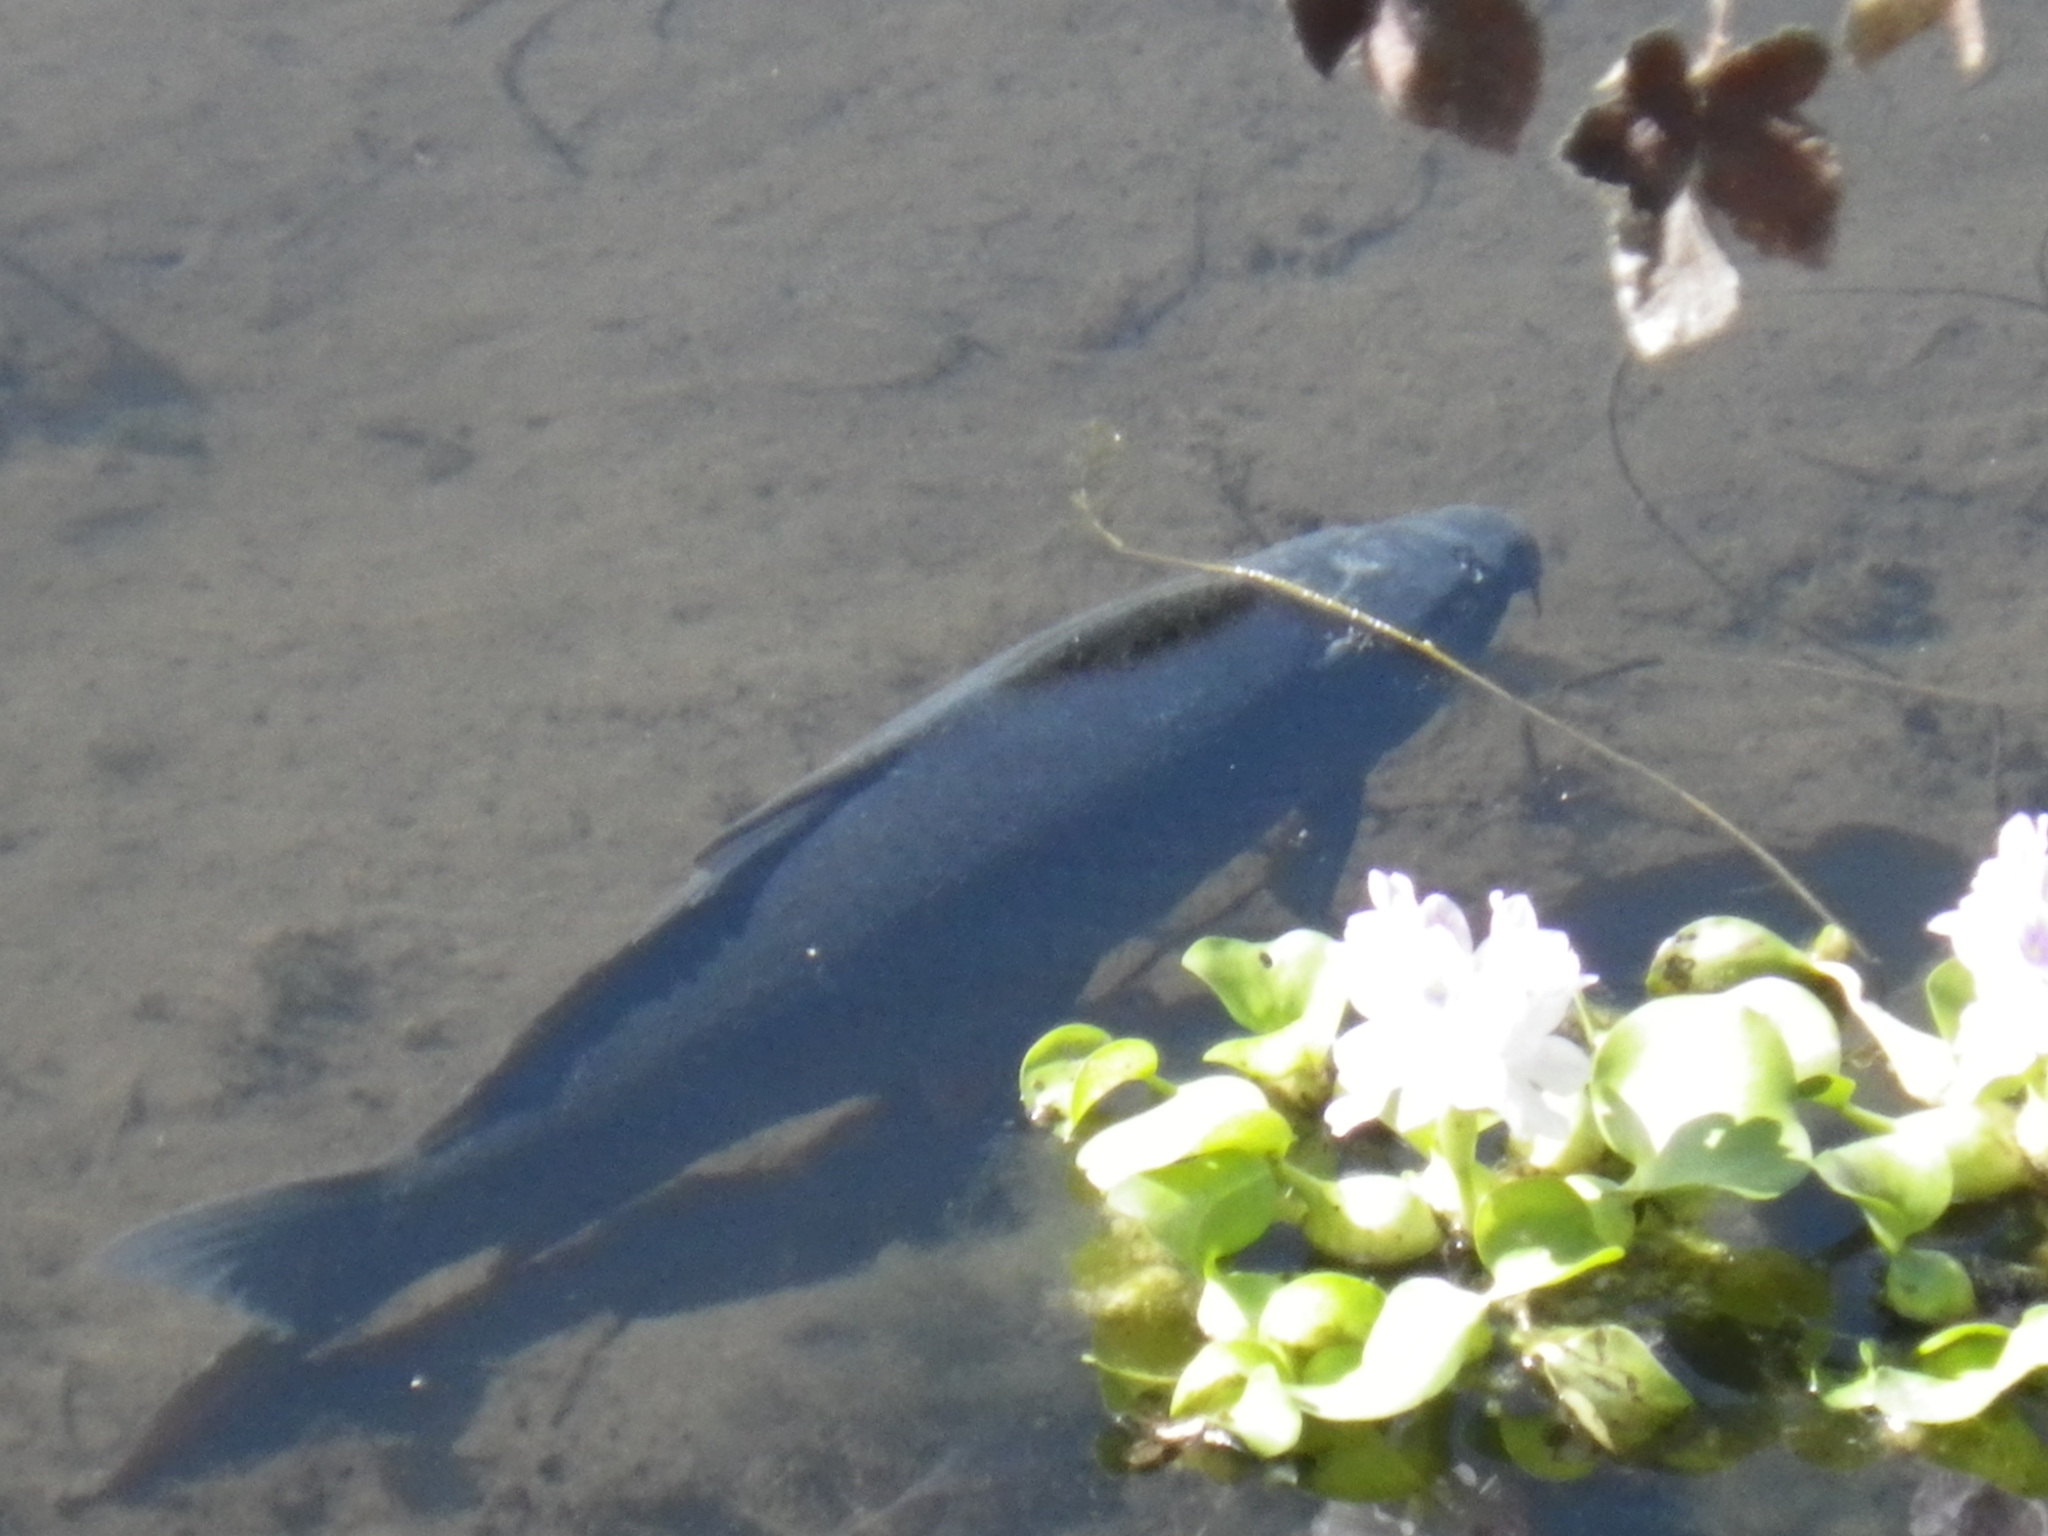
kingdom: Animalia
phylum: Chordata
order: Cypriniformes
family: Cyprinidae
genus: Cyprinus
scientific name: Cyprinus carpio
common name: Common carp
